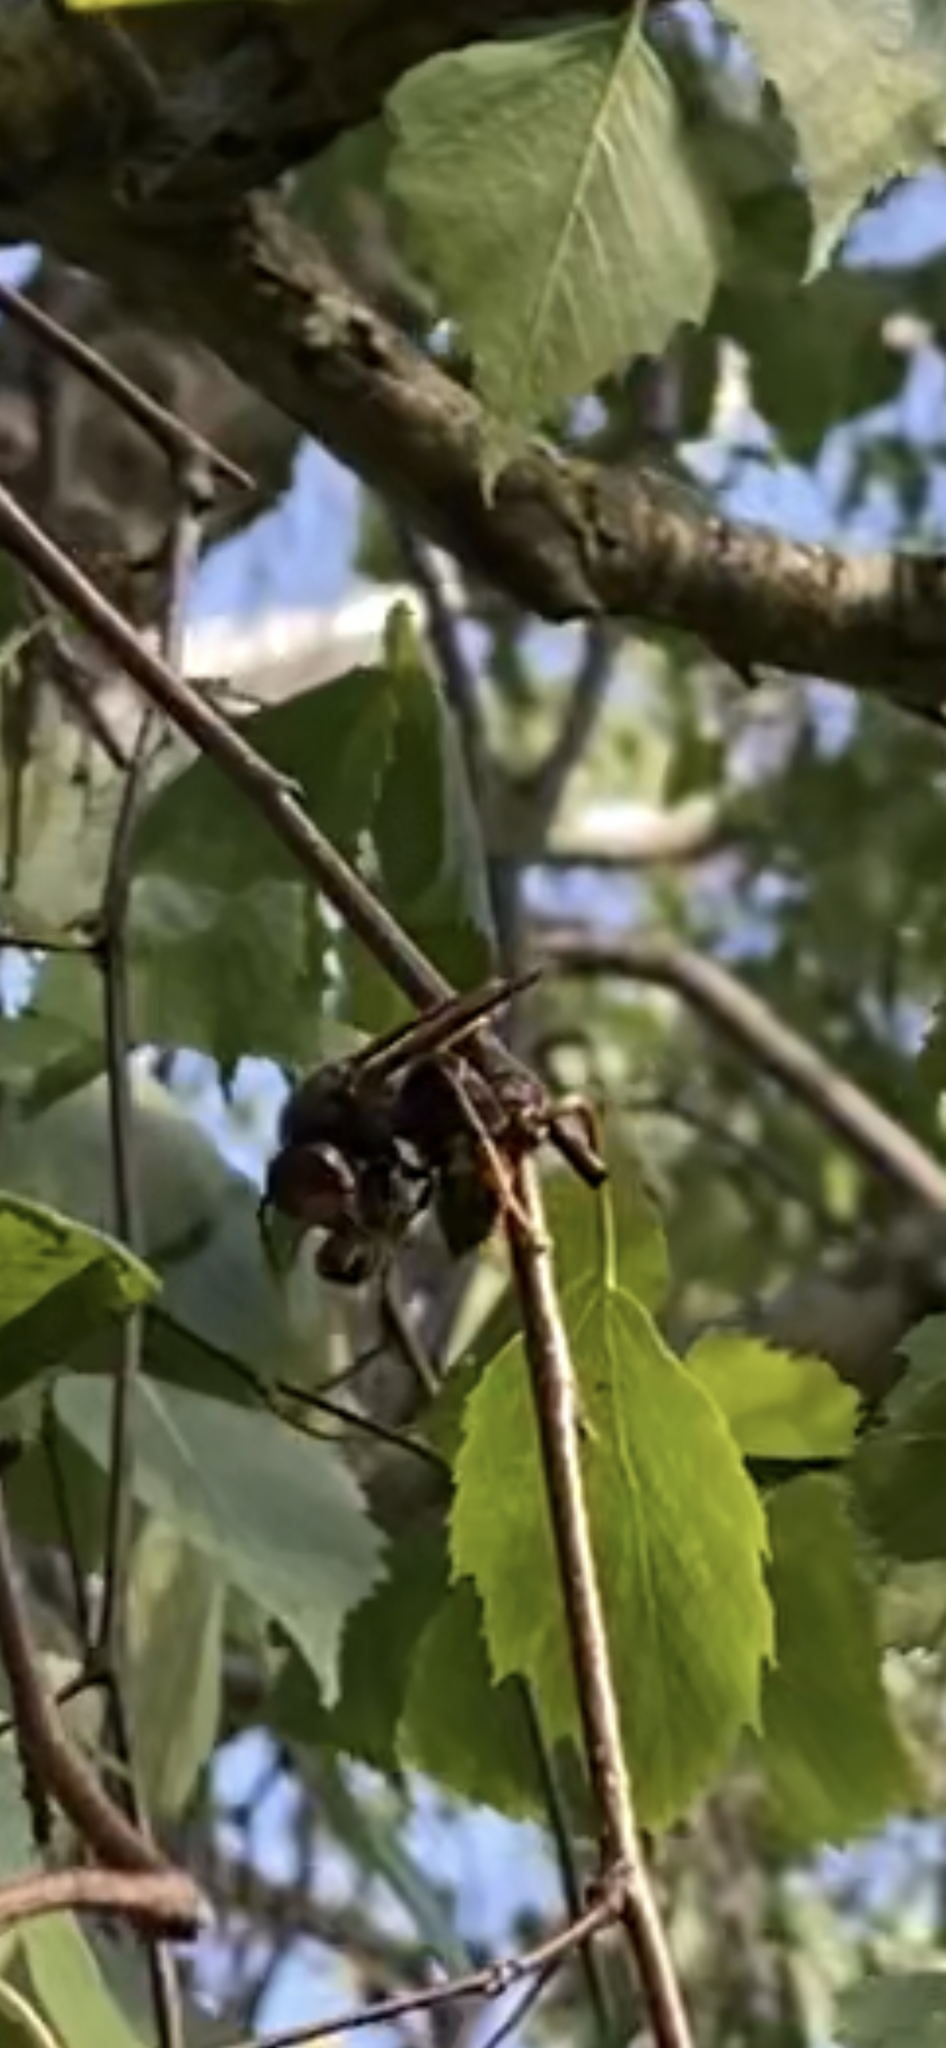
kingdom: Animalia
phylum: Arthropoda
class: Insecta
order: Hymenoptera
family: Vespidae
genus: Vespa
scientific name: Vespa velutina
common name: Asian hornet
